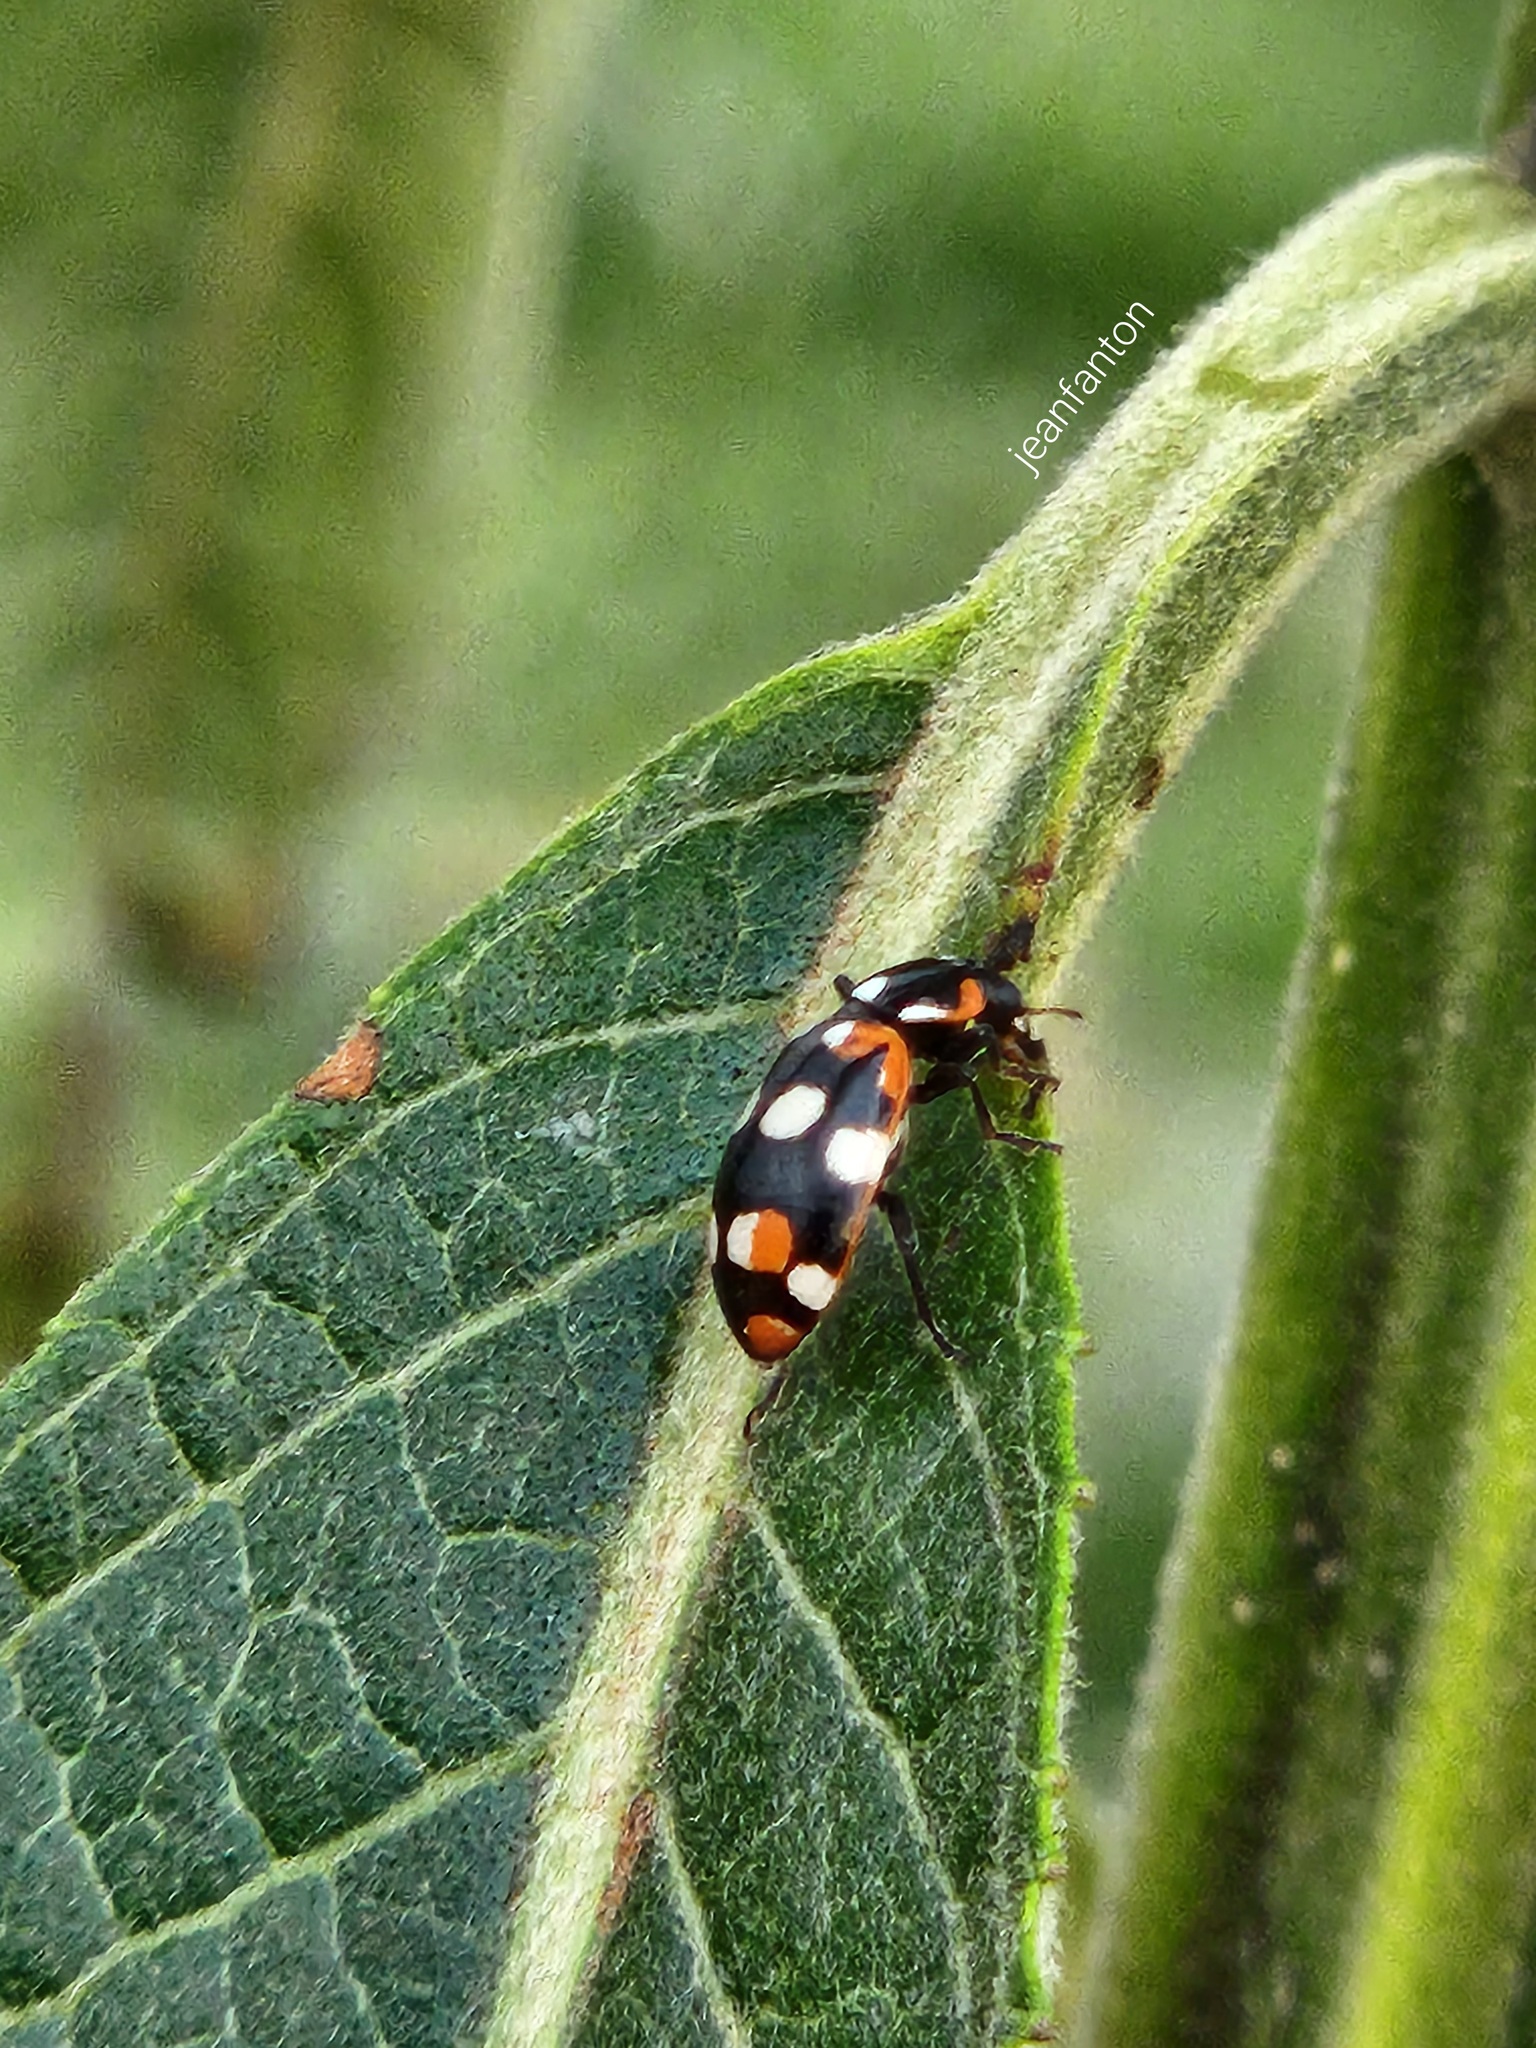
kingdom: Animalia
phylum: Arthropoda
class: Insecta
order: Coleoptera
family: Coccinellidae
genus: Eriopis
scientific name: Eriopis connexa
